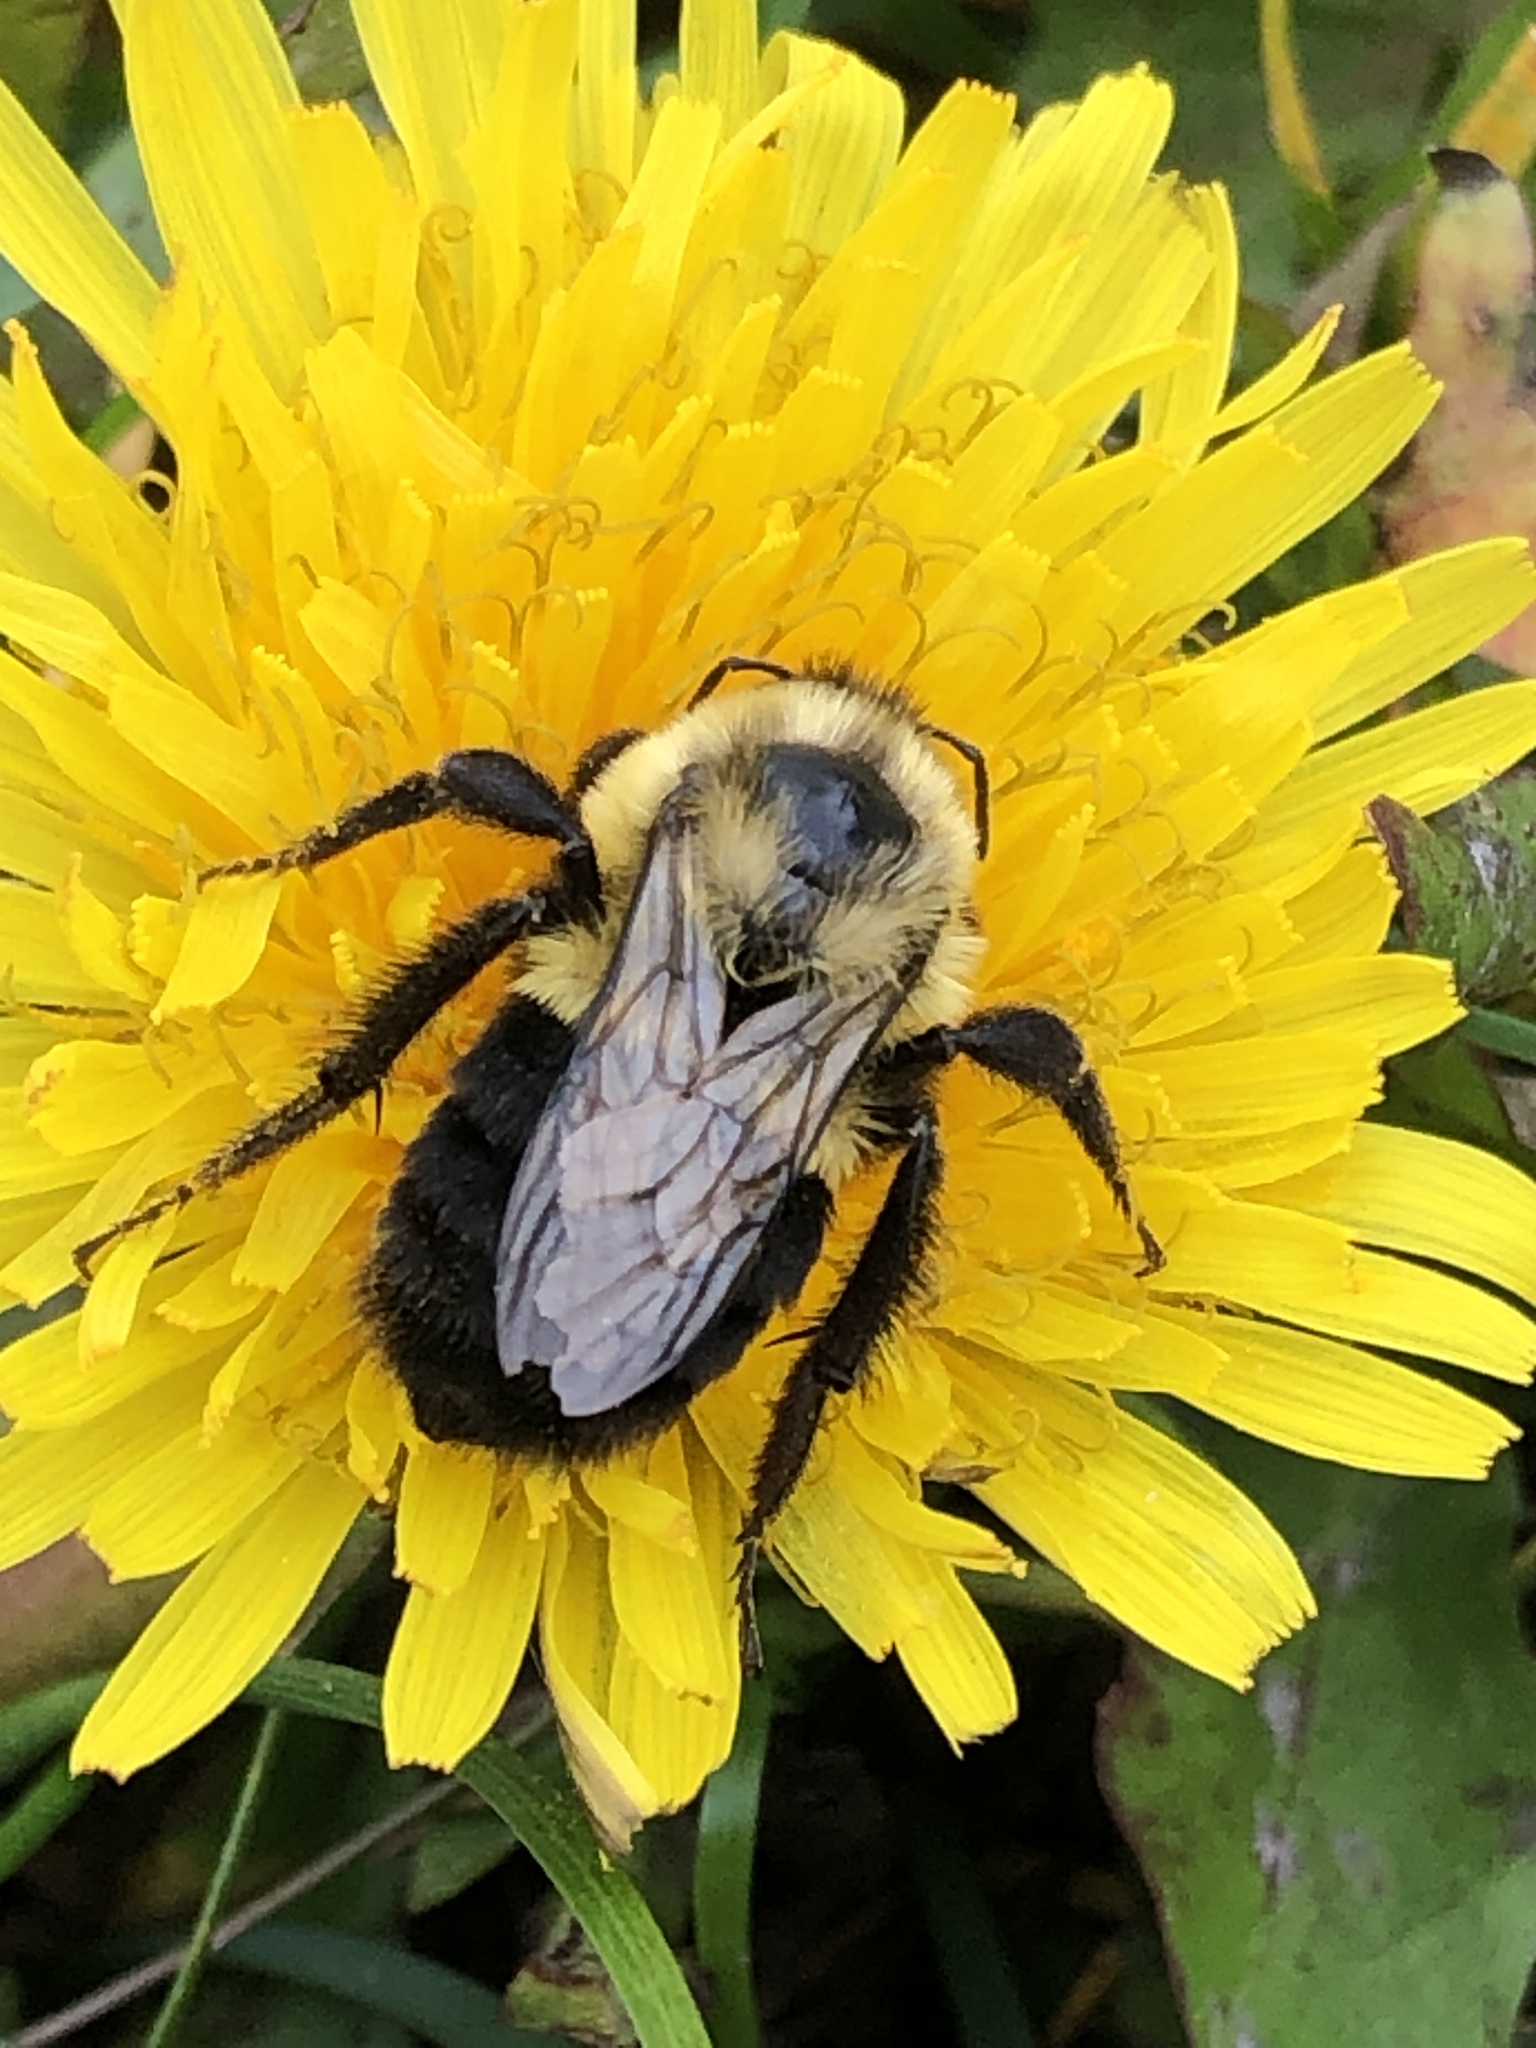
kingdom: Animalia
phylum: Arthropoda
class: Insecta
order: Hymenoptera
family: Apidae
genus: Bombus
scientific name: Bombus impatiens
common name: Common eastern bumble bee
